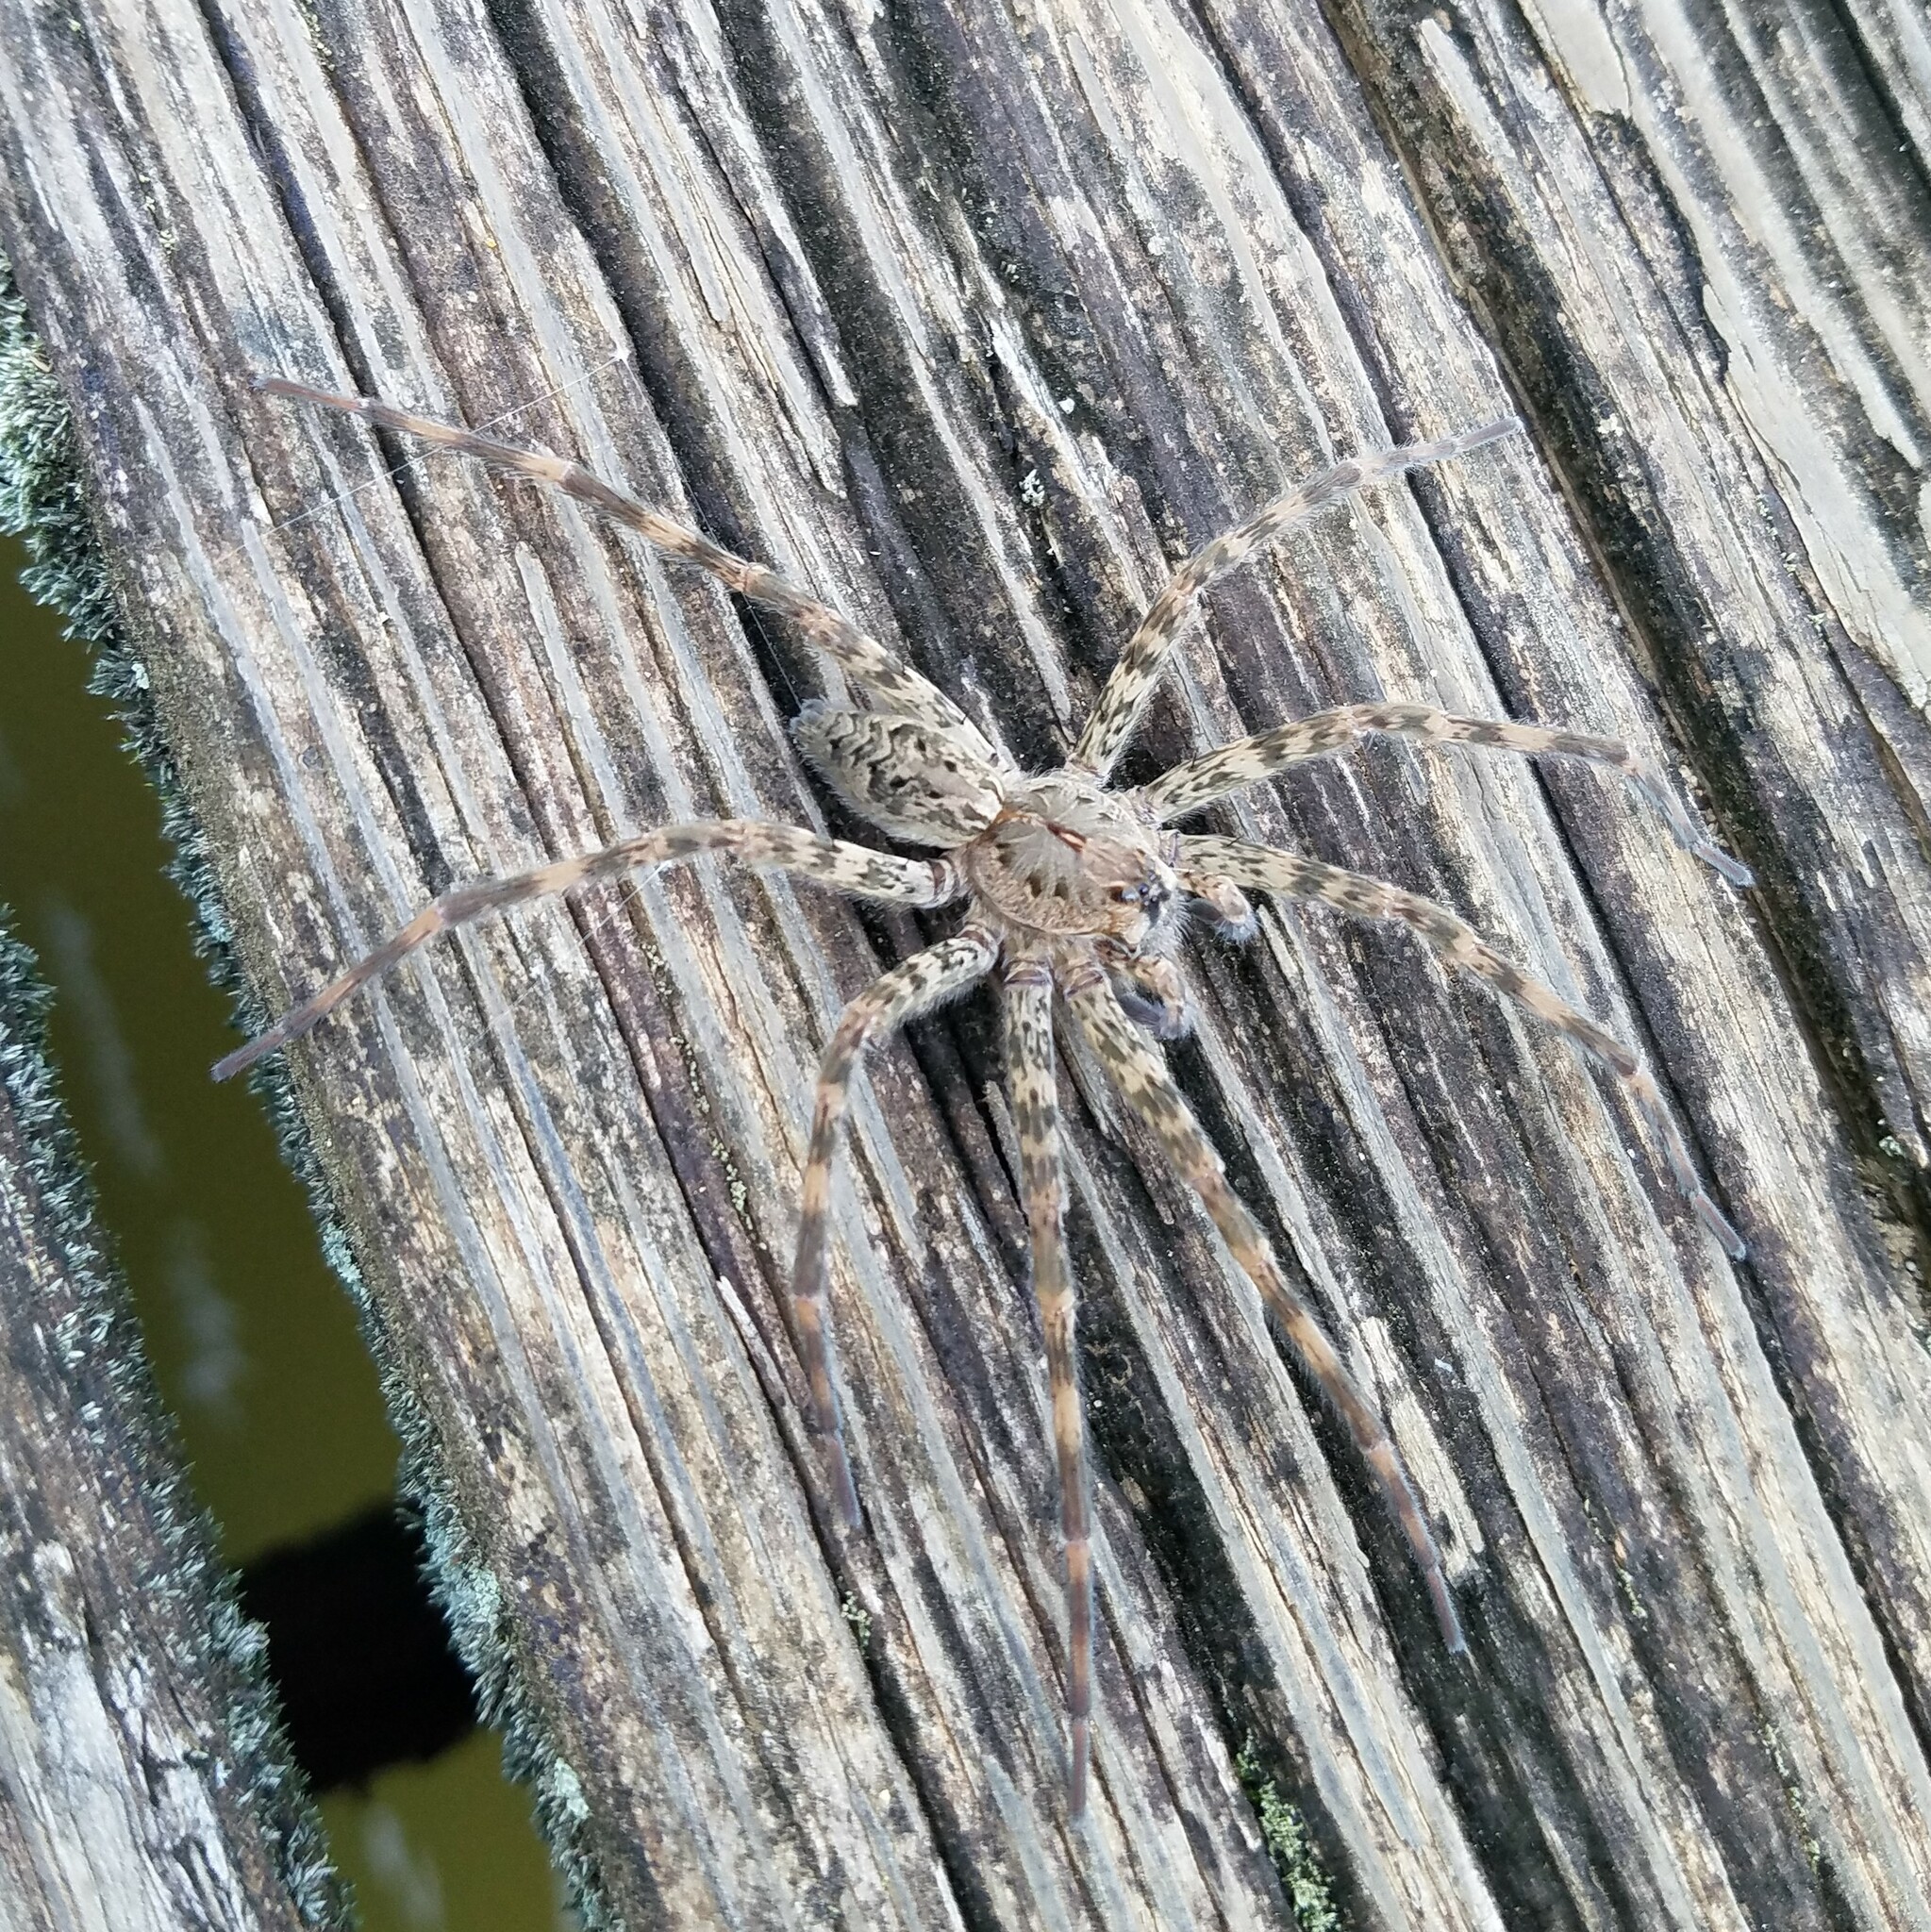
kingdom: Animalia
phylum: Arthropoda
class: Arachnida
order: Araneae
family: Pisauridae
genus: Dolomedes
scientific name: Dolomedes tenebrosus
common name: Dark fishing spider
